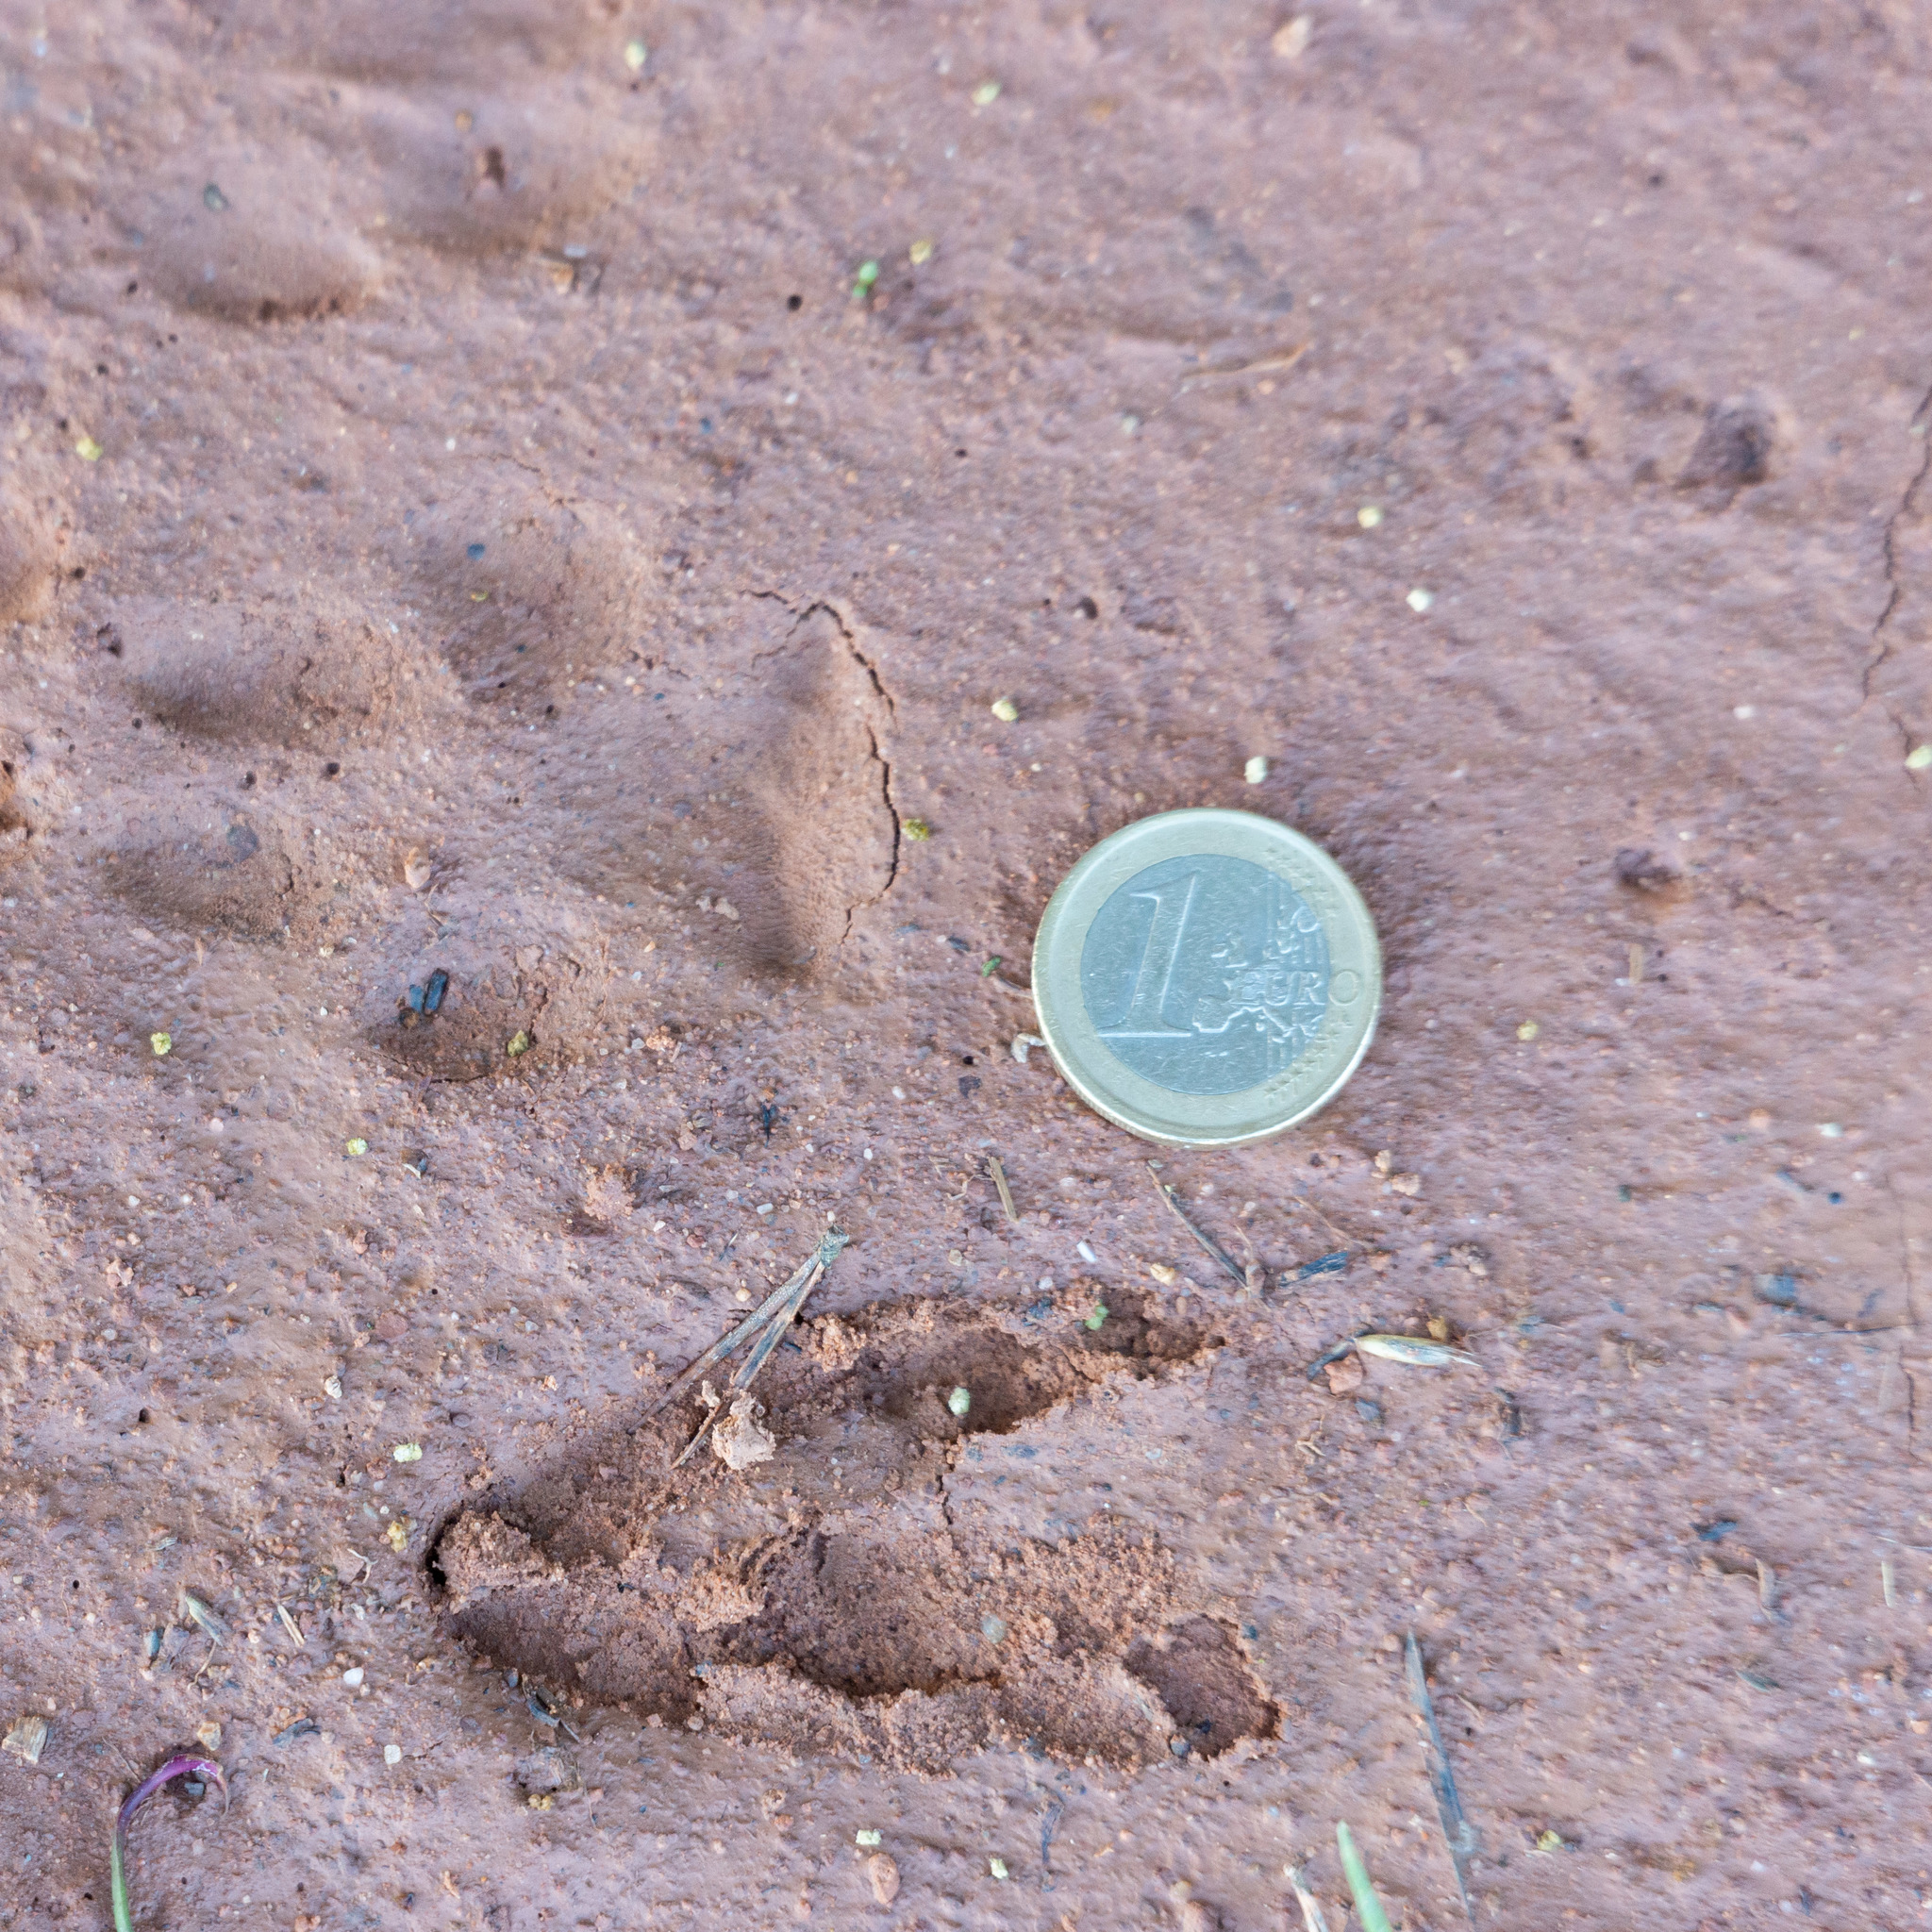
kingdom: Animalia
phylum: Chordata
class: Mammalia
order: Artiodactyla
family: Cervidae
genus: Capreolus
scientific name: Capreolus capreolus
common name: Western roe deer
